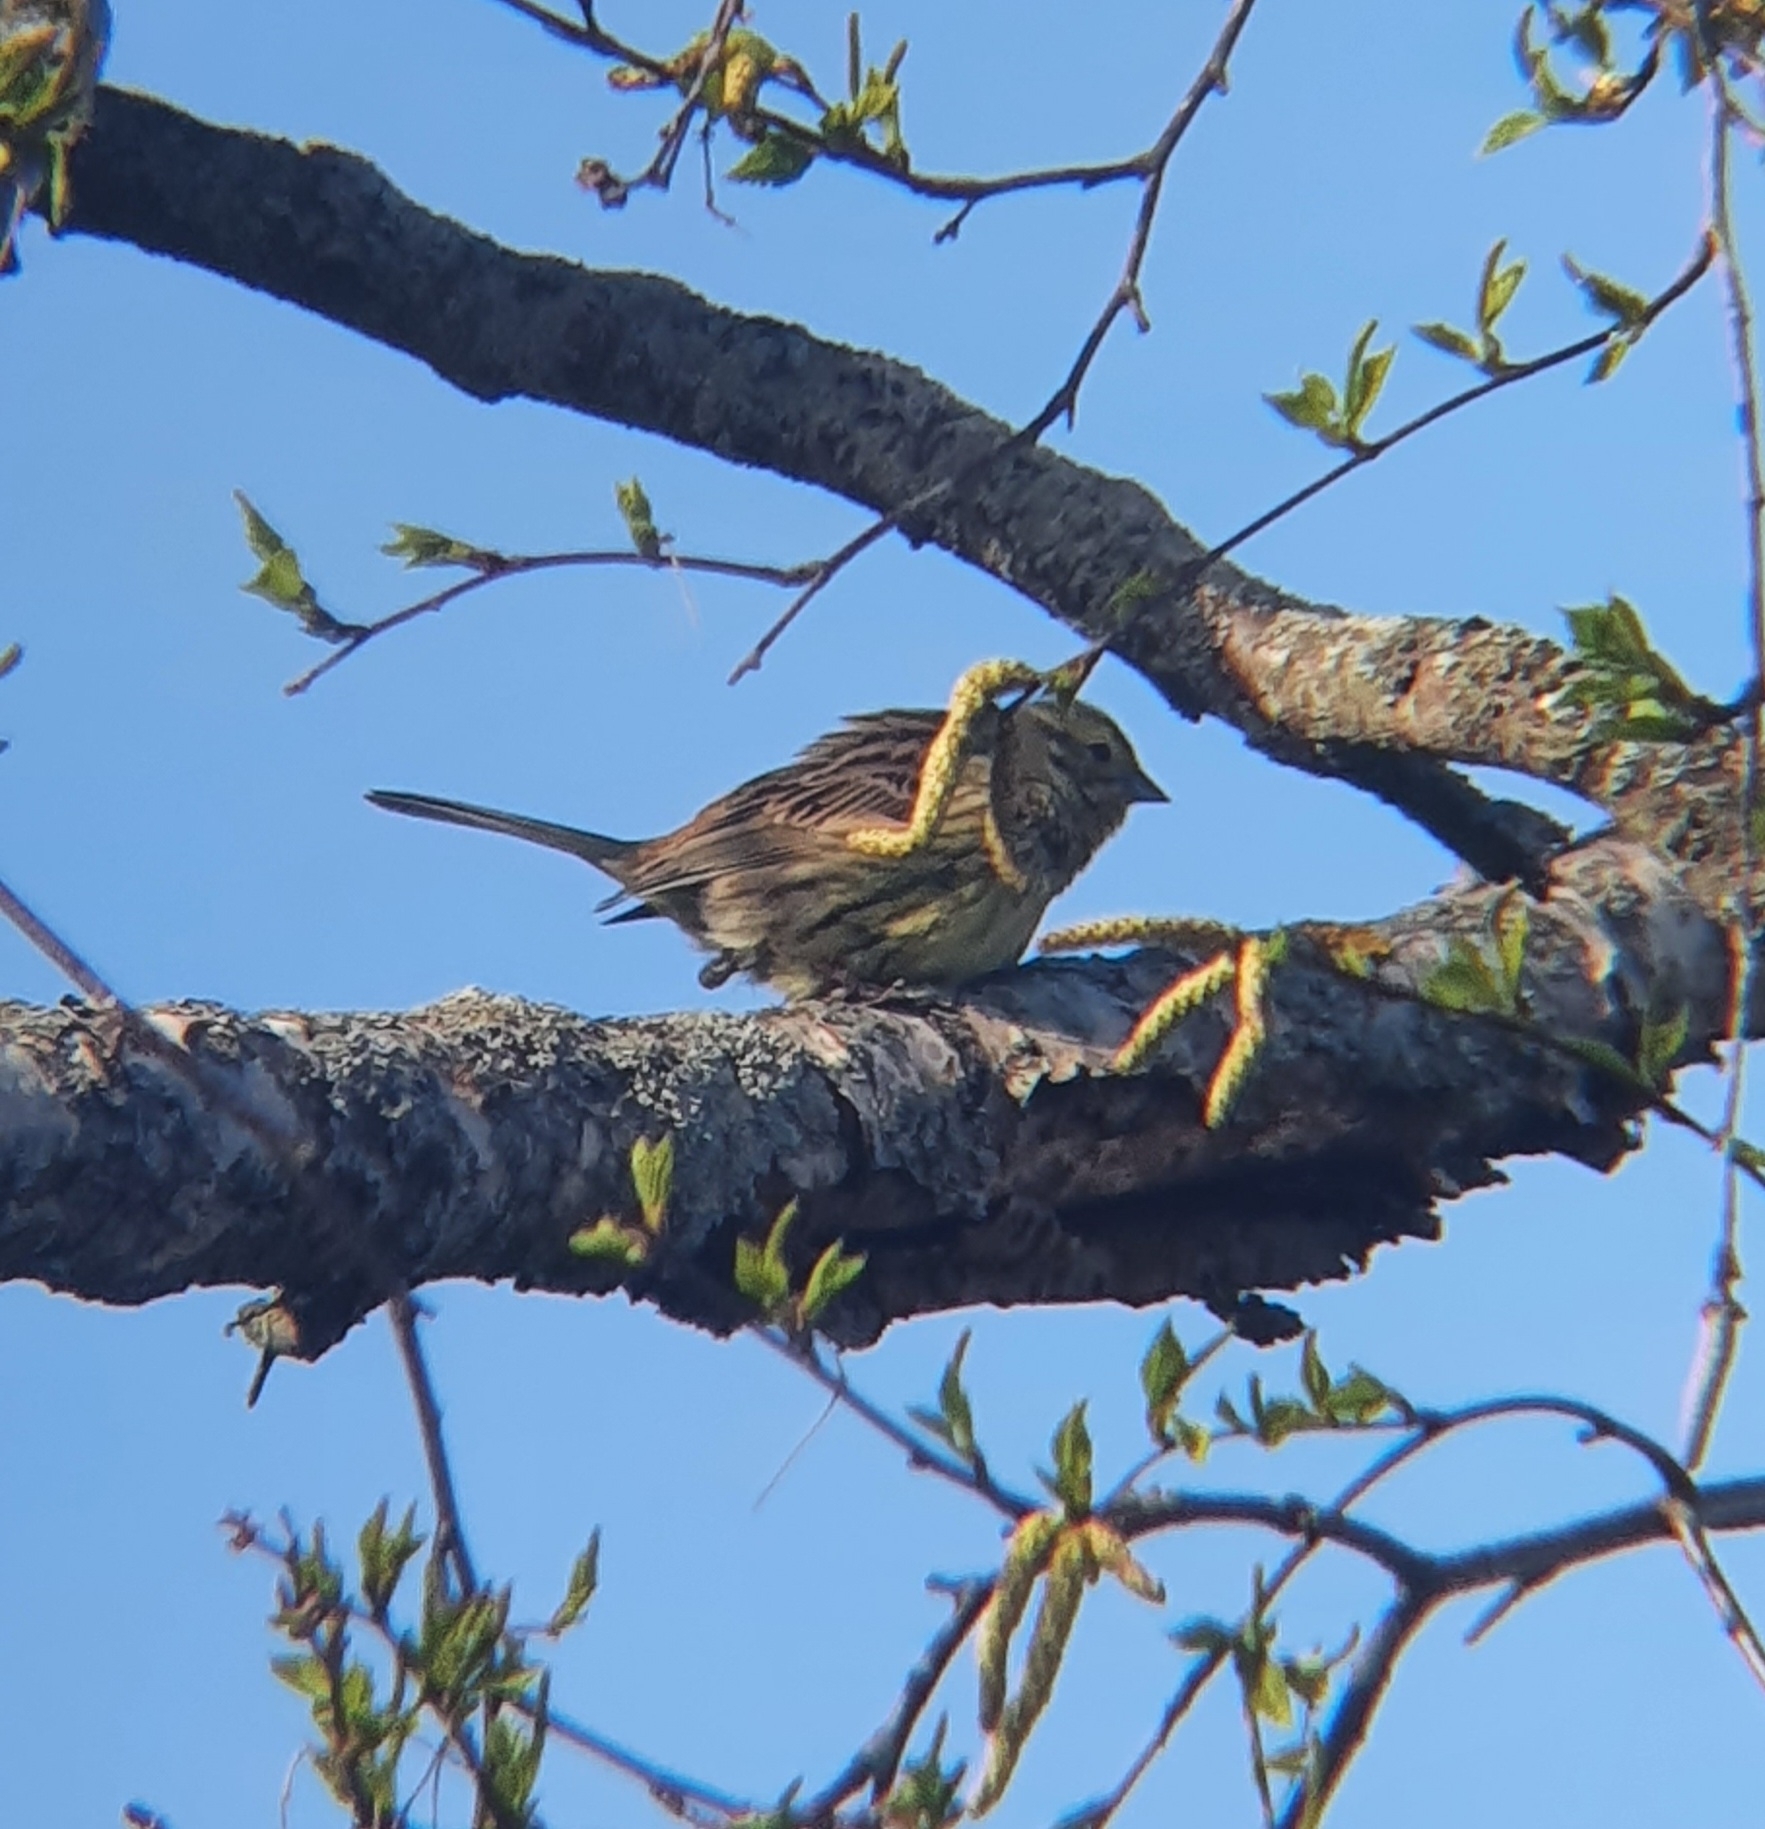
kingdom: Animalia
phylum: Chordata
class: Aves
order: Passeriformes
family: Emberizidae
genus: Emberiza
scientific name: Emberiza citrinella
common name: Yellowhammer
